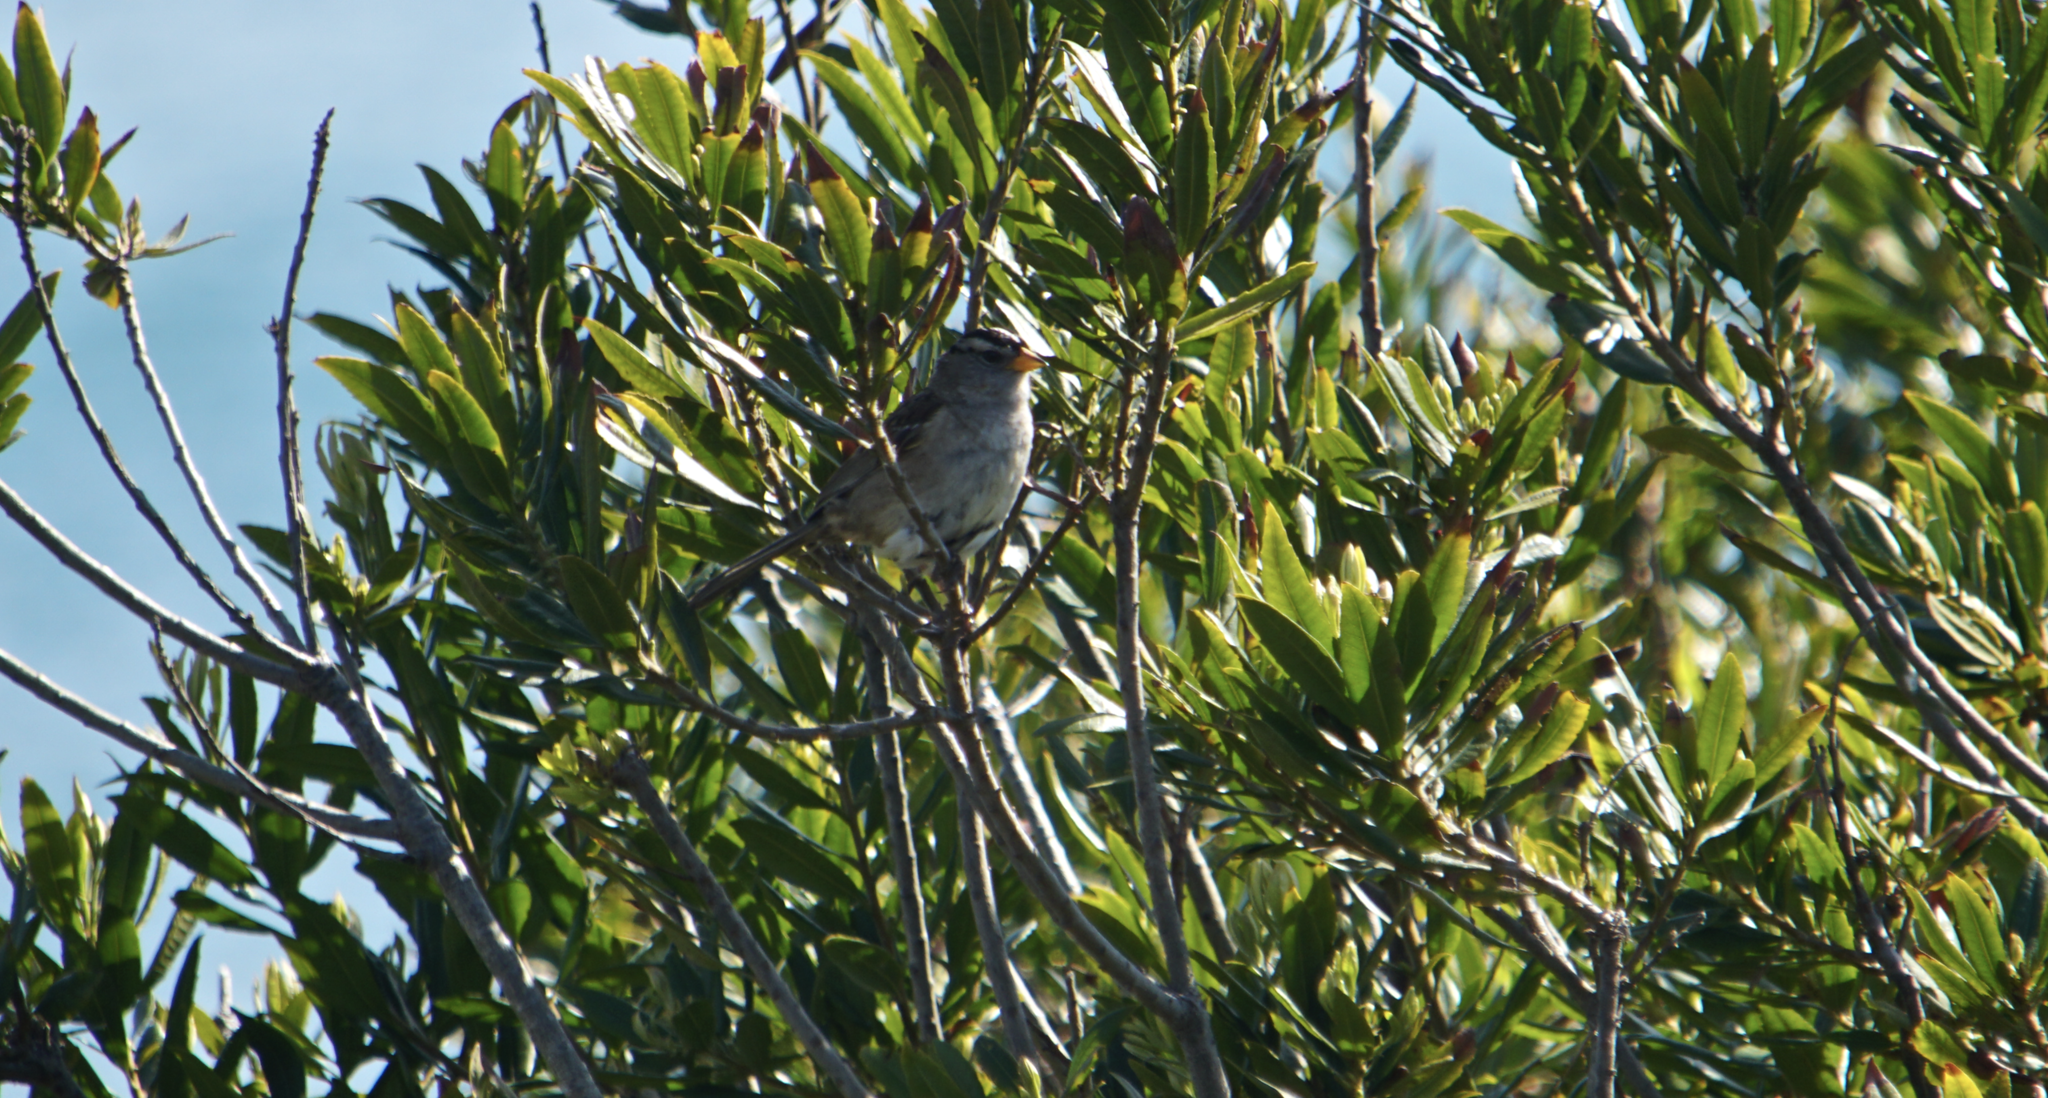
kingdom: Animalia
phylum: Chordata
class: Aves
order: Passeriformes
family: Passerellidae
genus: Zonotrichia
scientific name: Zonotrichia leucophrys
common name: White-crowned sparrow
